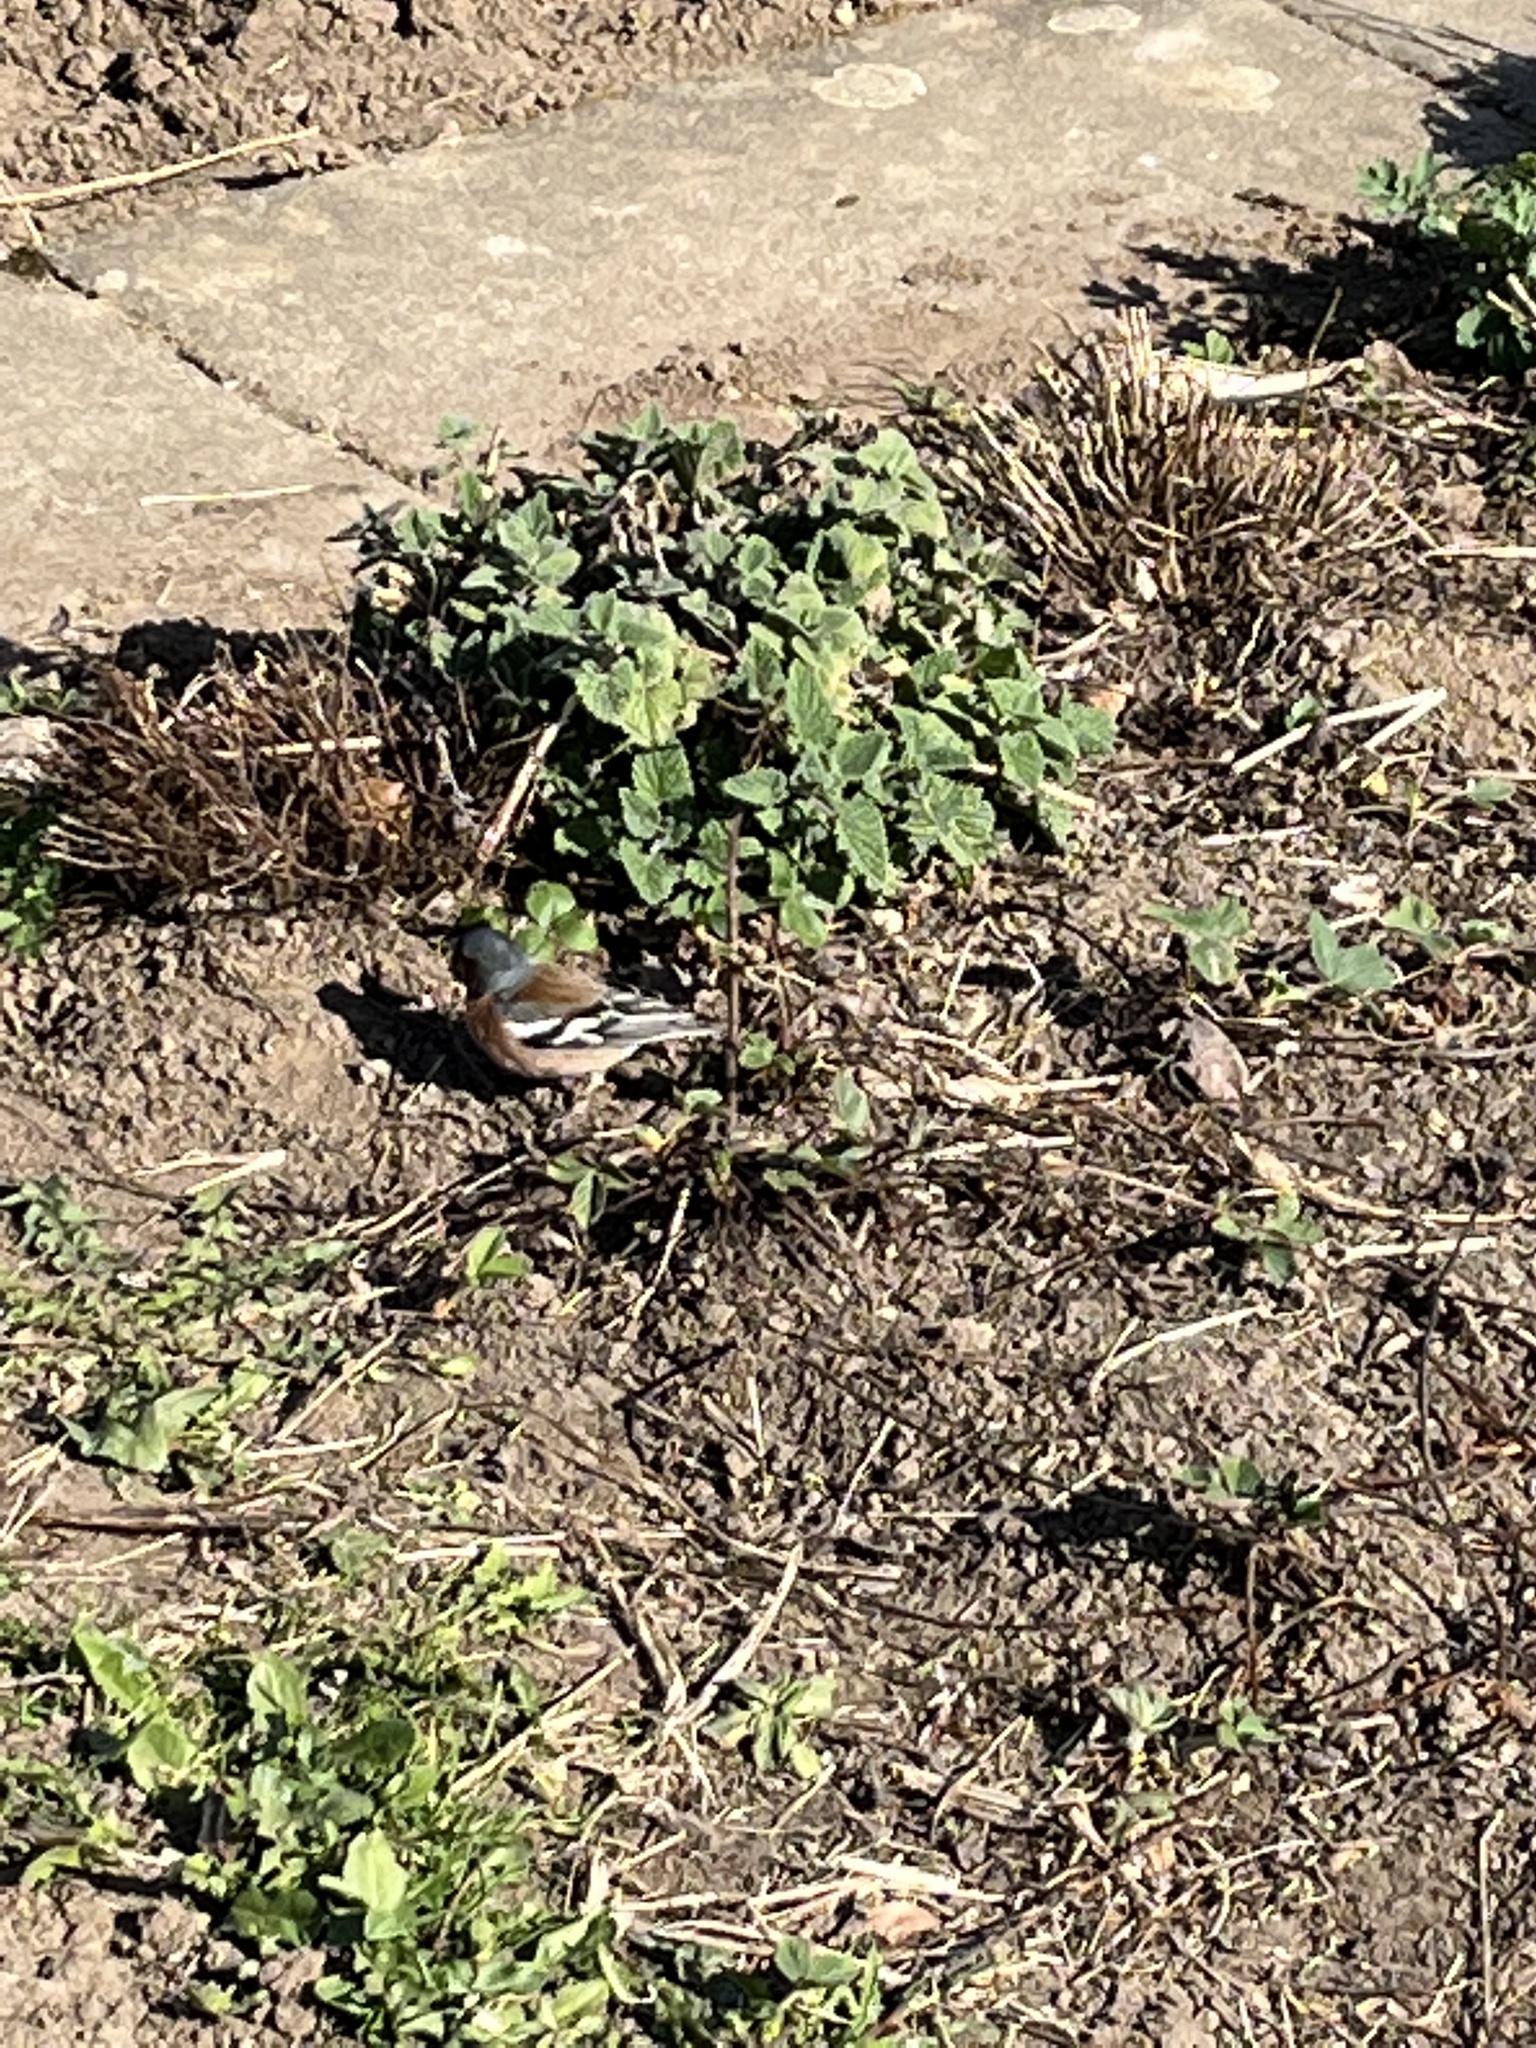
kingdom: Animalia
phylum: Chordata
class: Aves
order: Passeriformes
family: Fringillidae
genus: Fringilla
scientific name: Fringilla coelebs
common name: Common chaffinch
